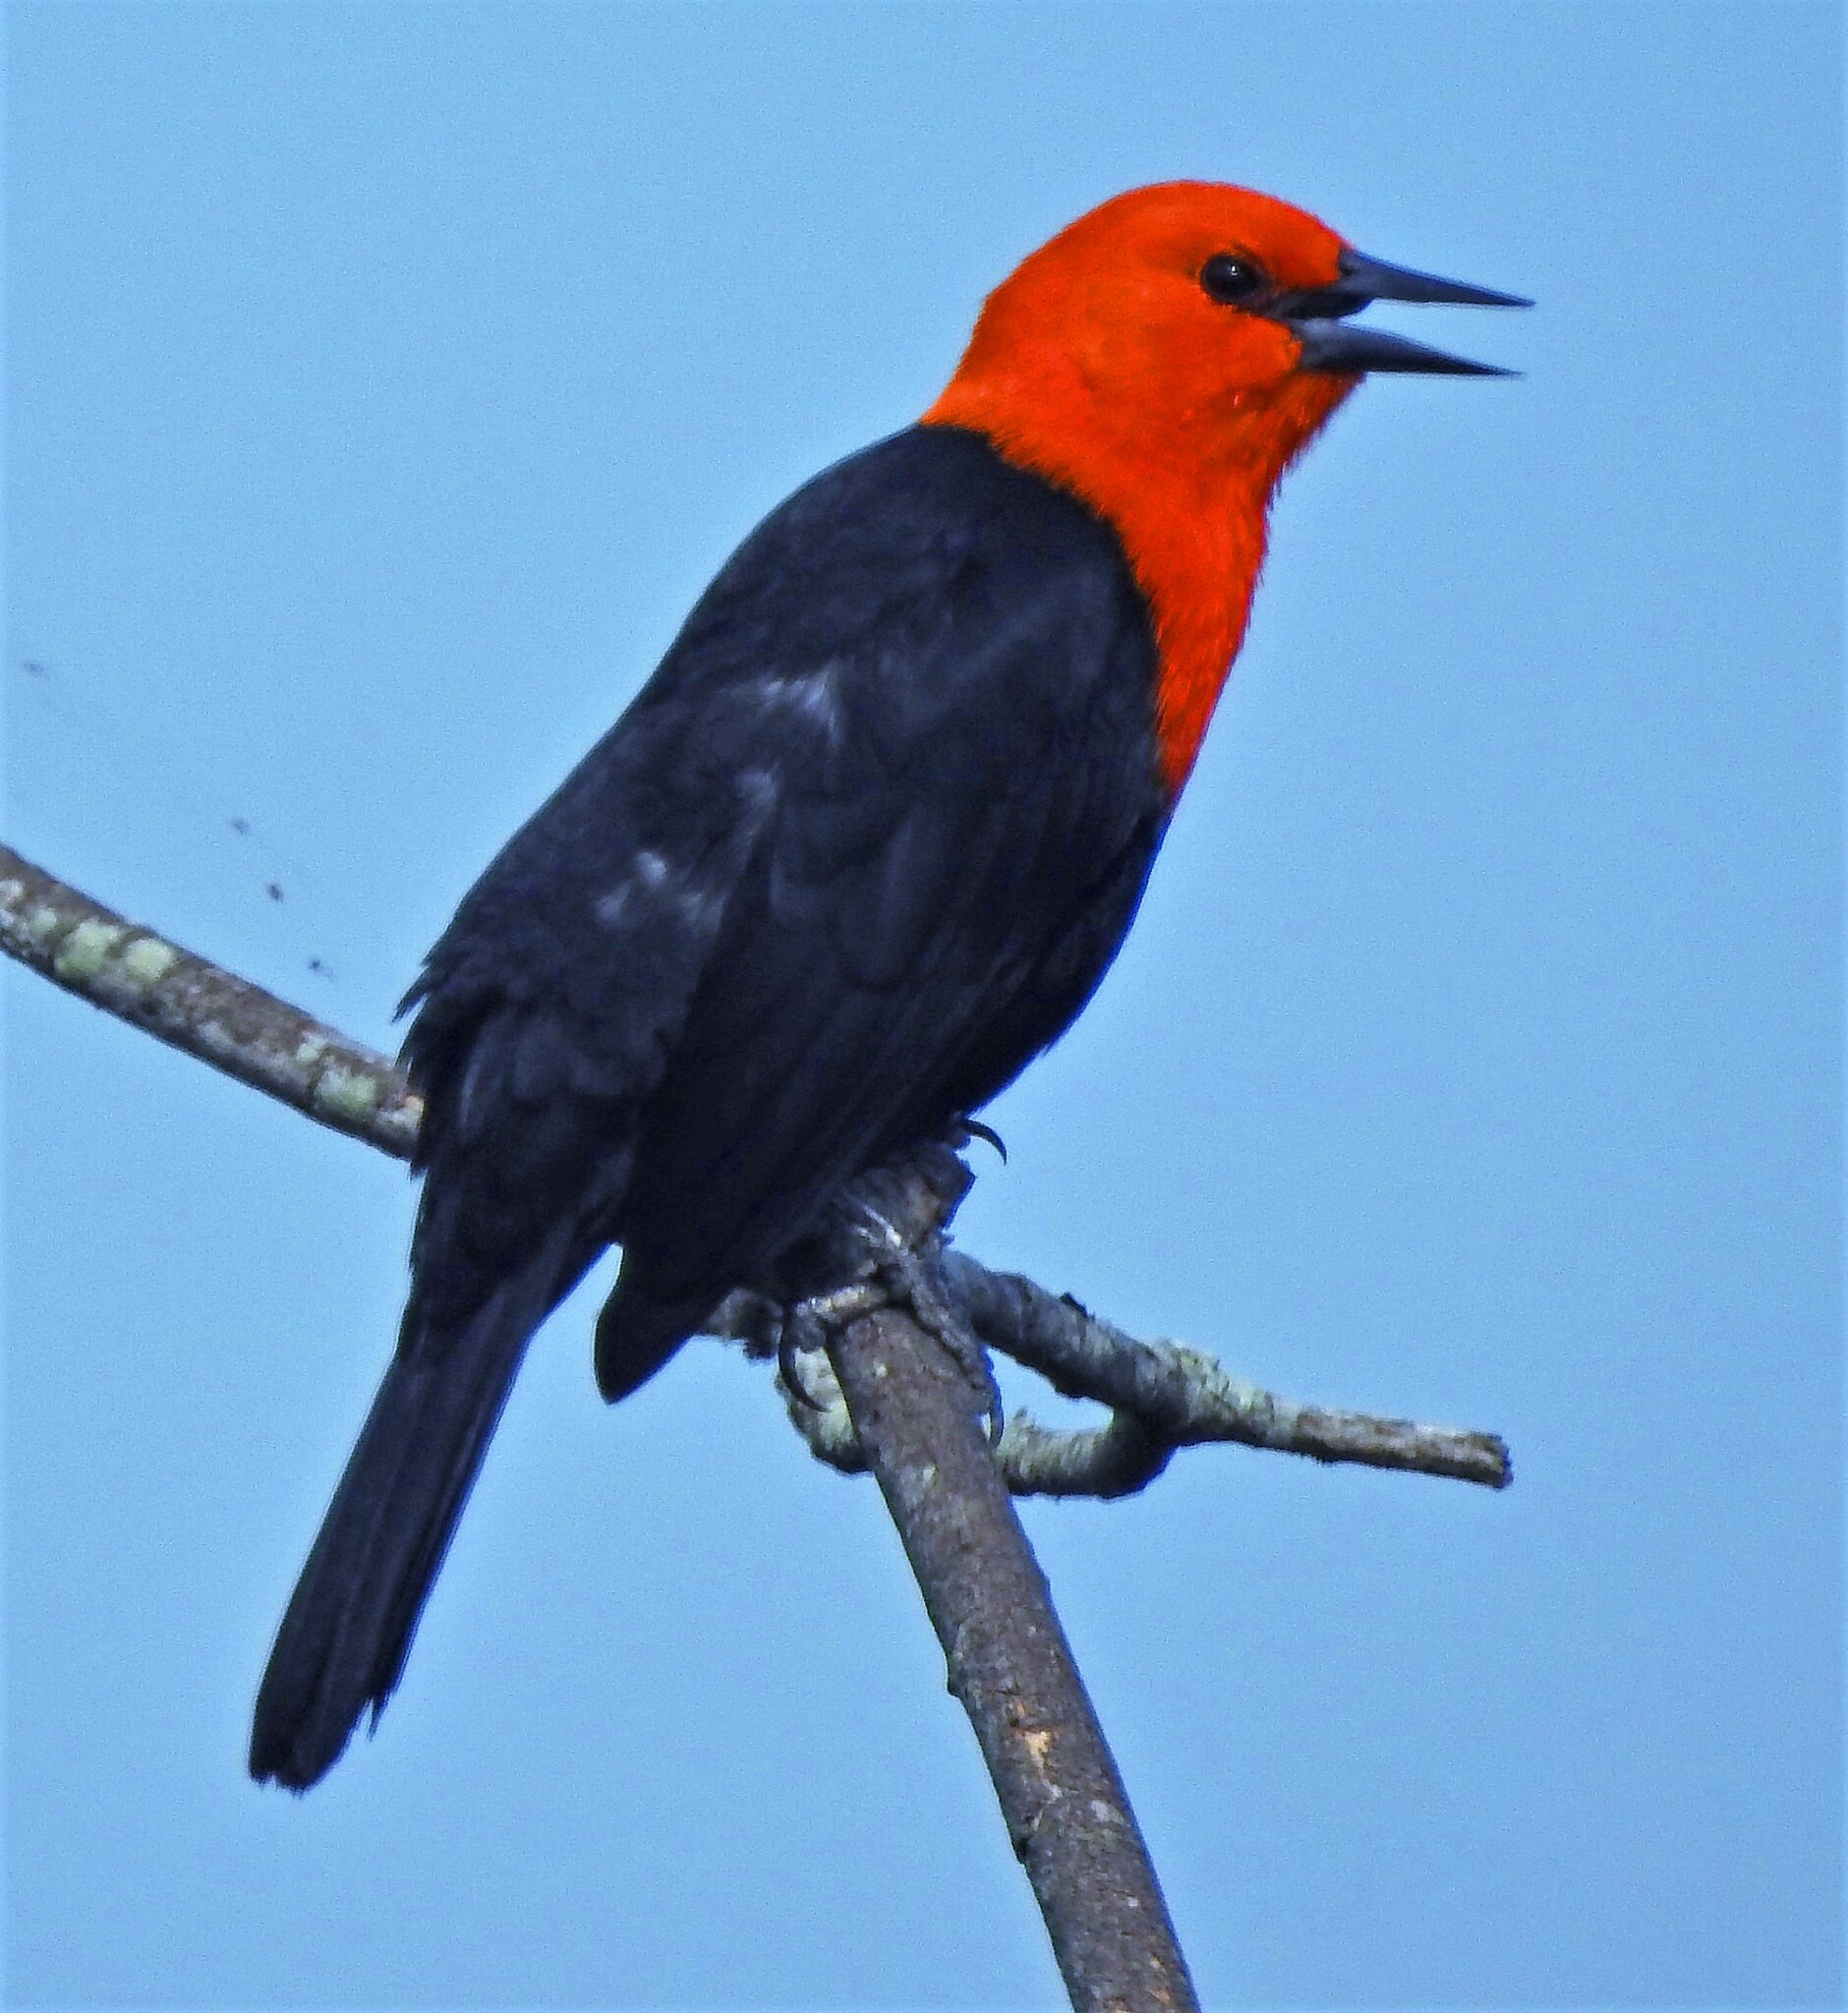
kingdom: Animalia
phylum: Chordata
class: Aves
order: Passeriformes
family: Icteridae
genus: Amblyramphus
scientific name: Amblyramphus holosericeus
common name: Scarlet-headed blackbird
